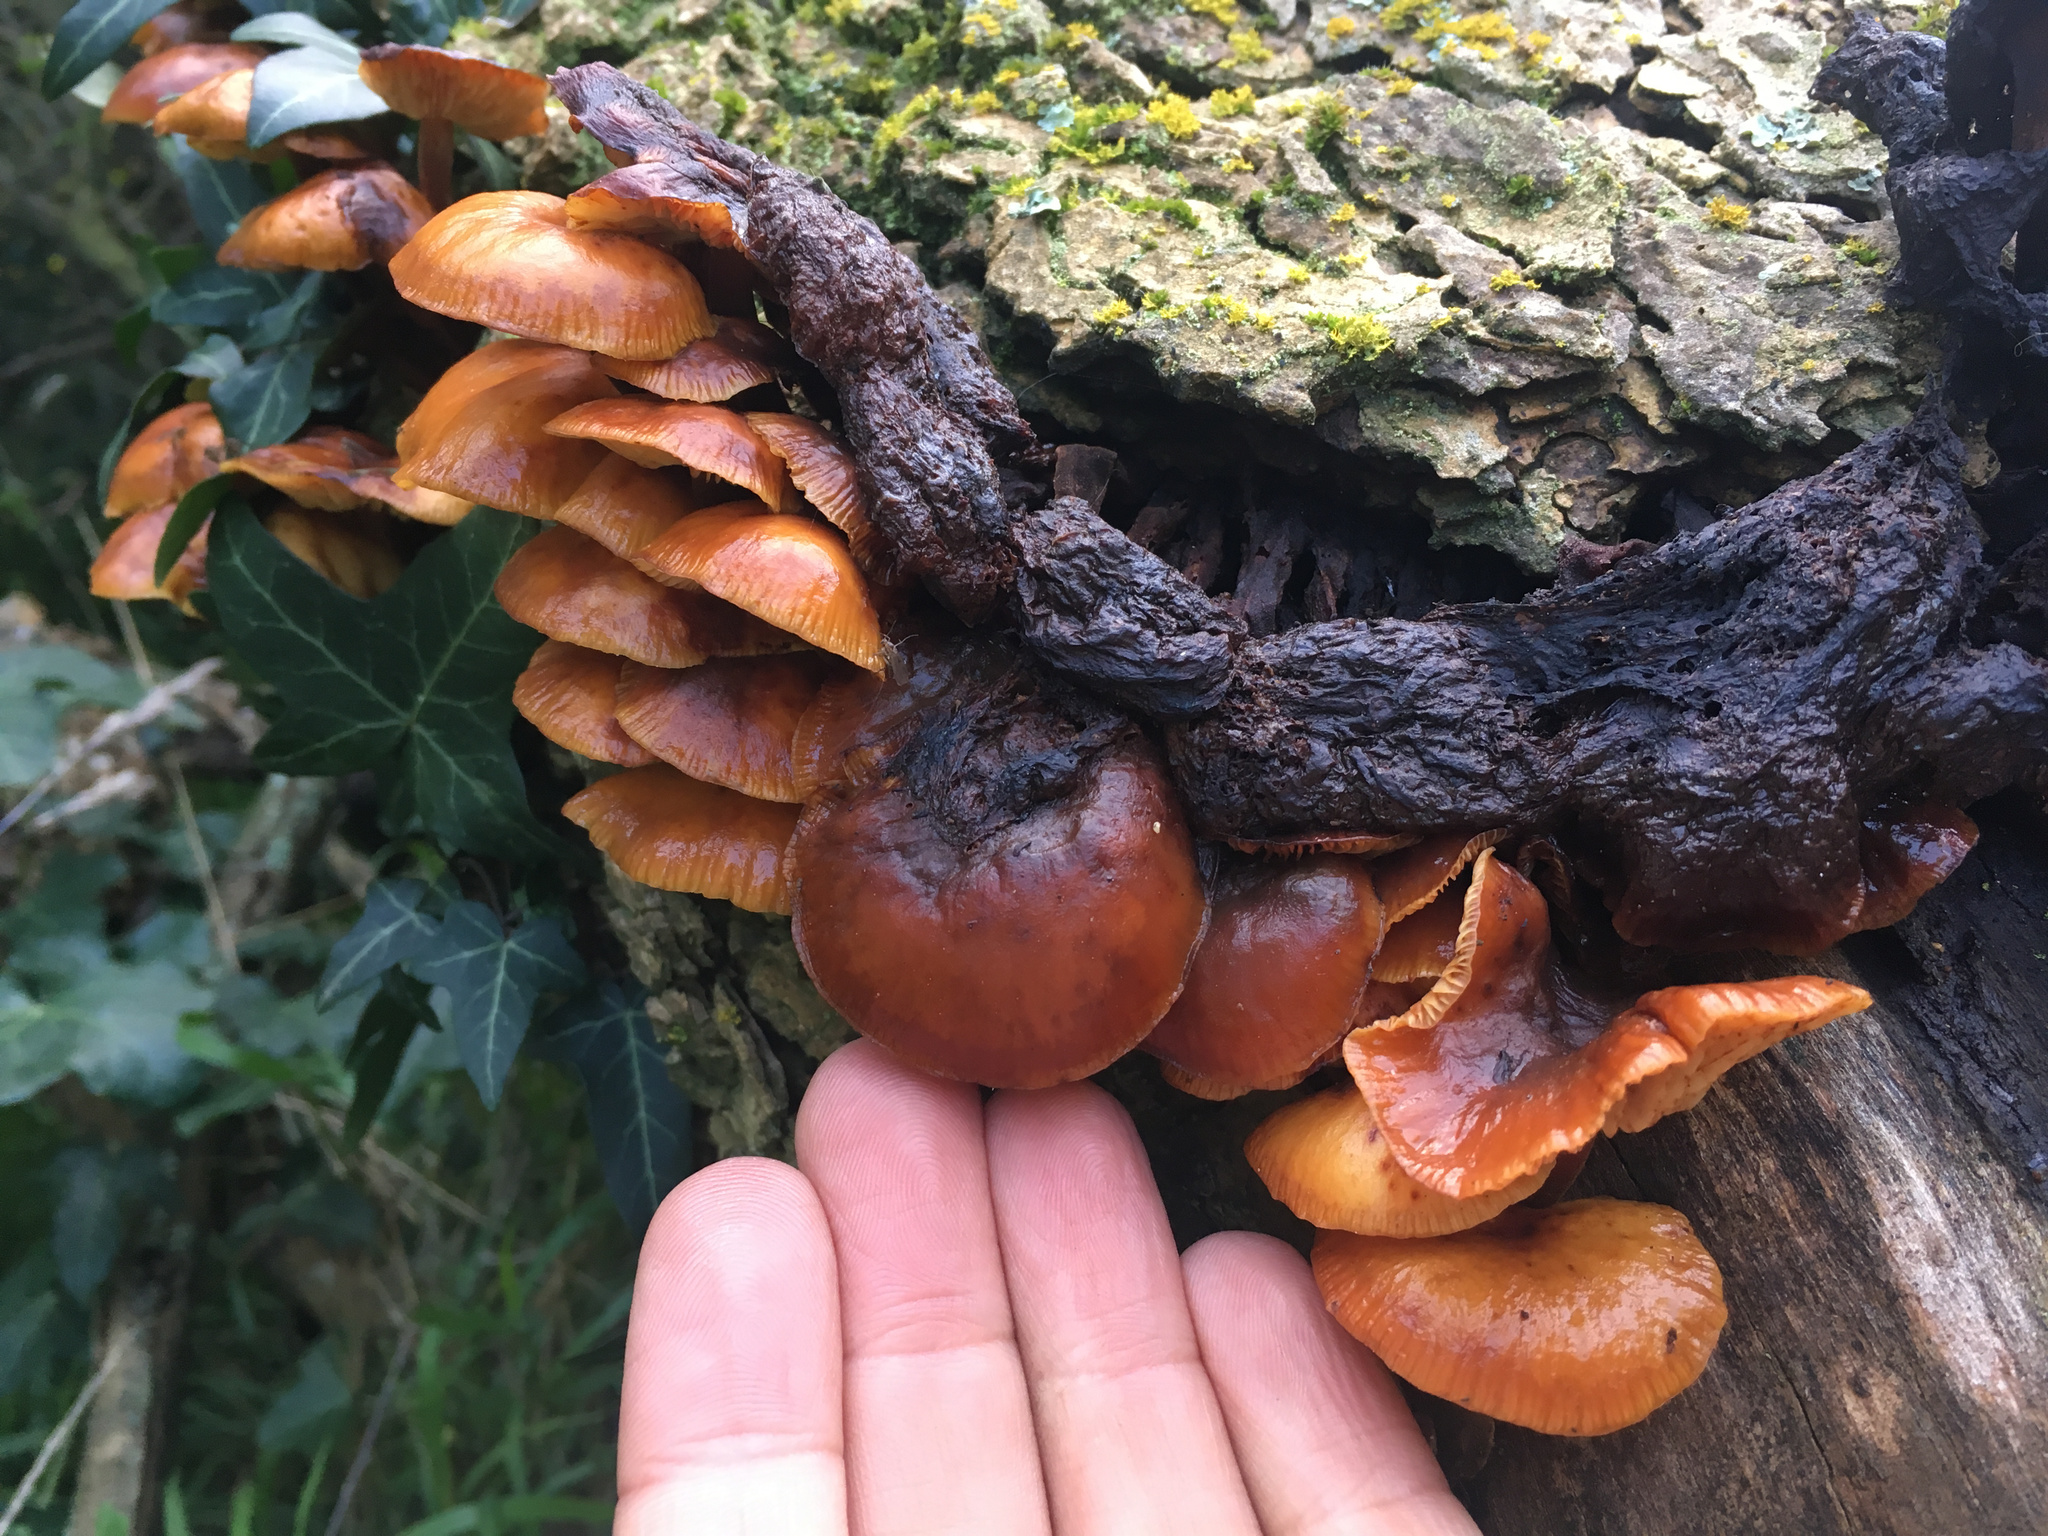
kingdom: Fungi
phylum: Basidiomycota
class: Agaricomycetes
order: Agaricales
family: Physalacriaceae
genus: Flammulina
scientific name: Flammulina velutipes
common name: Velvet shank
